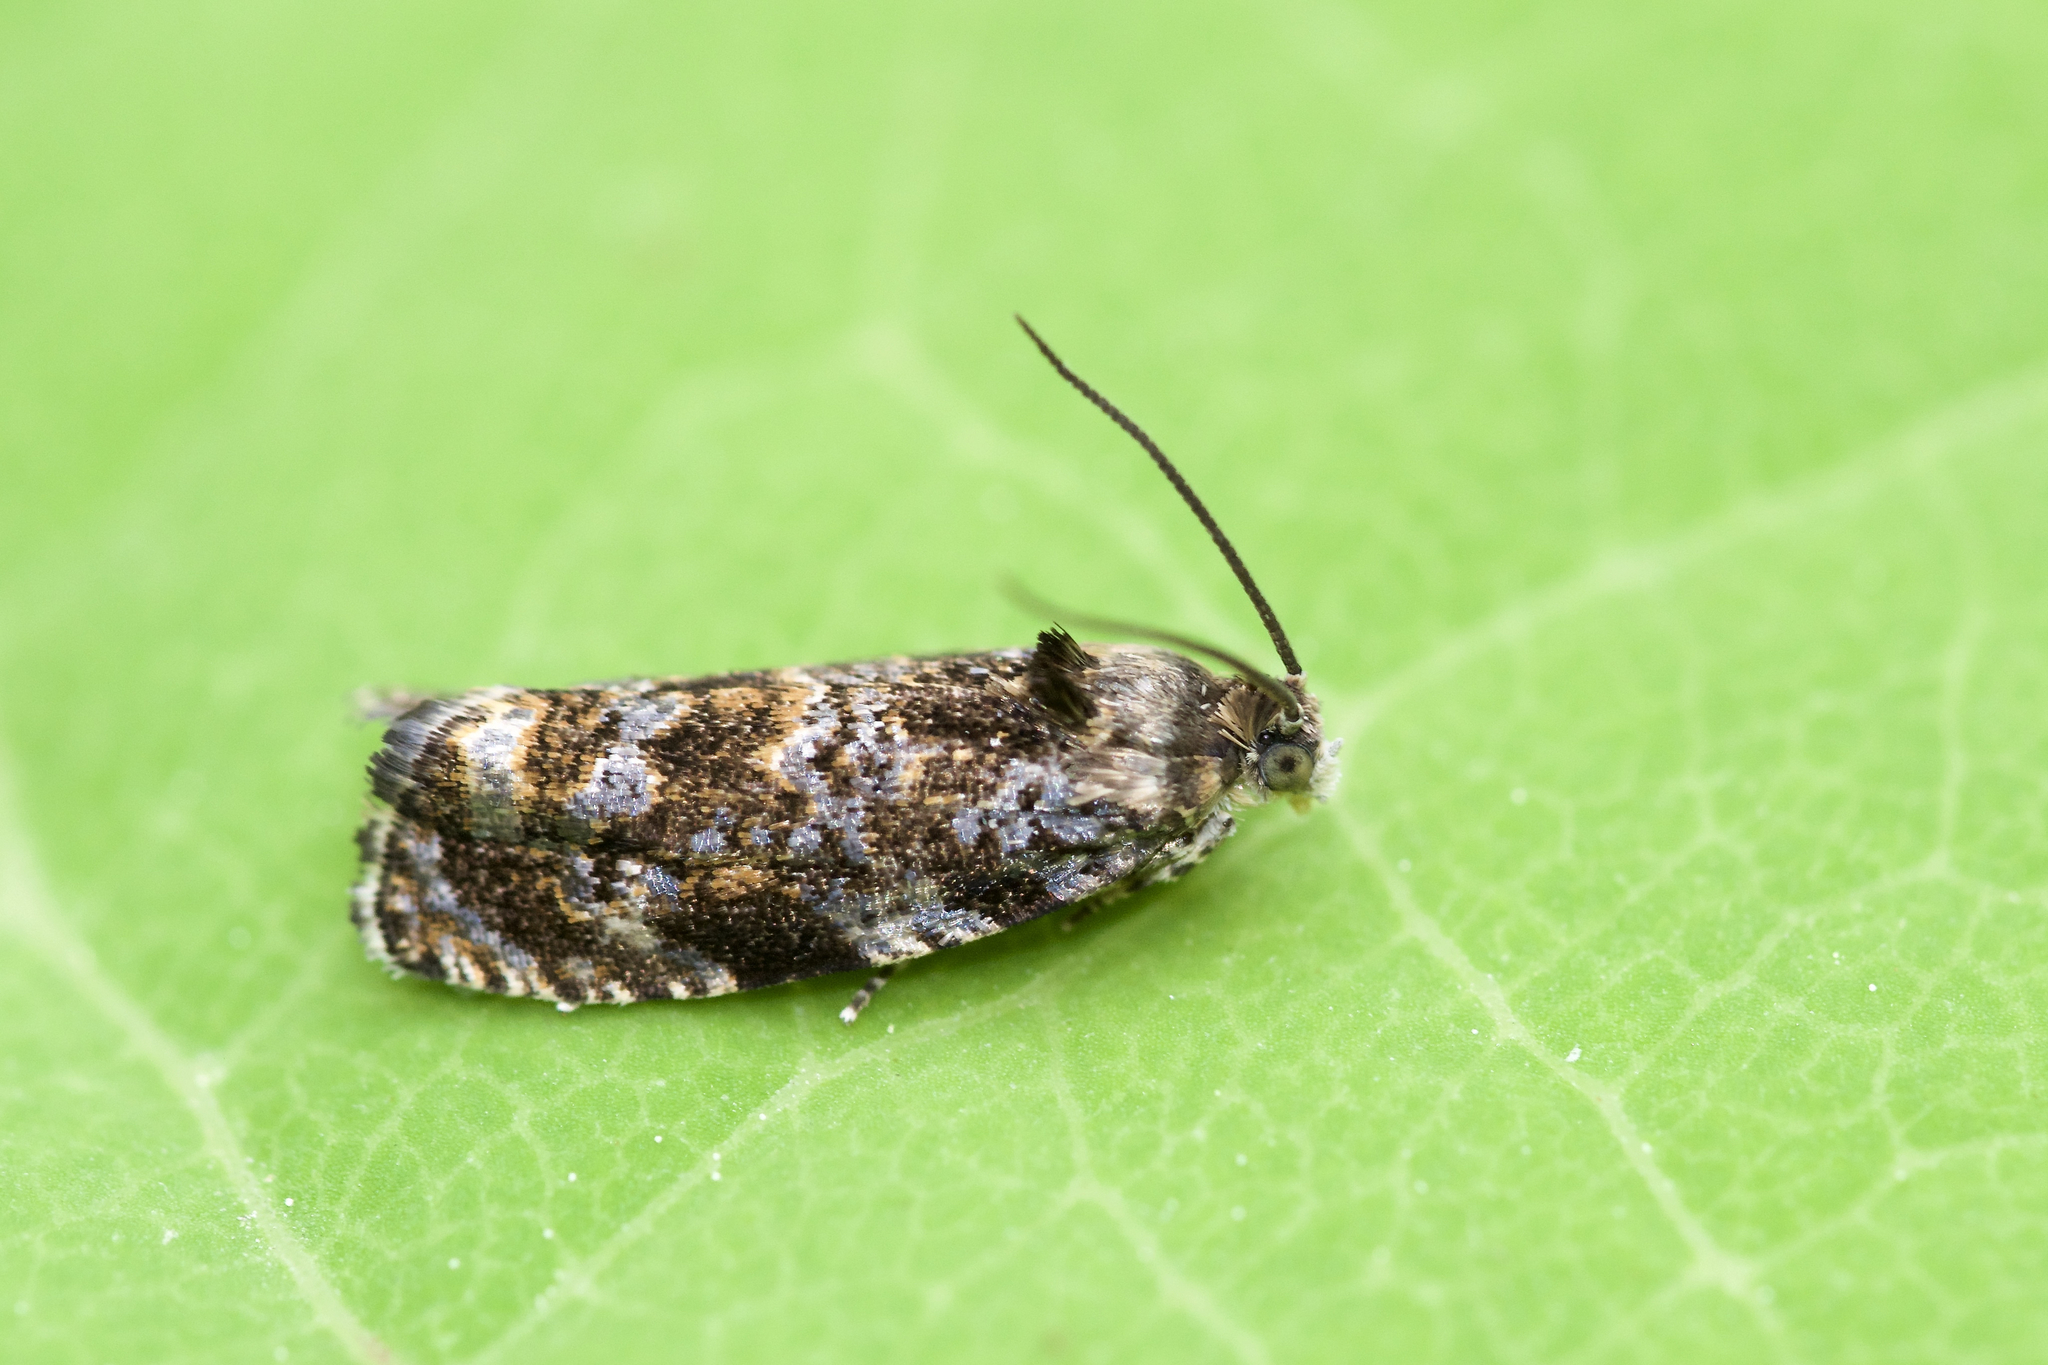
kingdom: Animalia
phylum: Arthropoda
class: Insecta
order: Lepidoptera
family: Tortricidae
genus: Pristerognatha
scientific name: Pristerognatha agilana
